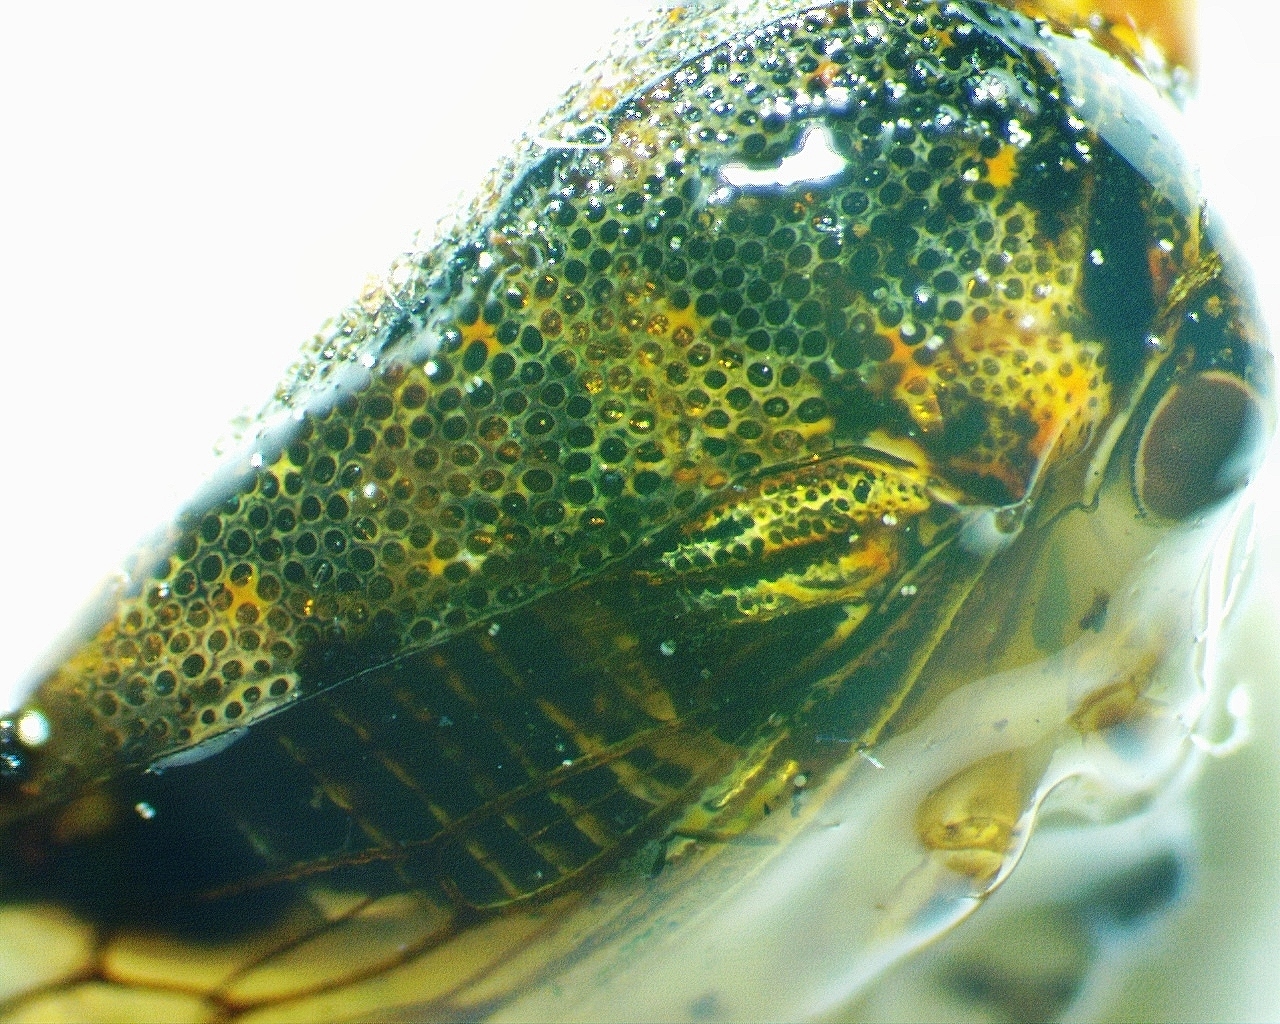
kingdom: Animalia
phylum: Arthropoda
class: Insecta
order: Hemiptera
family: Membracidae
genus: Platycotis
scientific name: Platycotis vittatus
